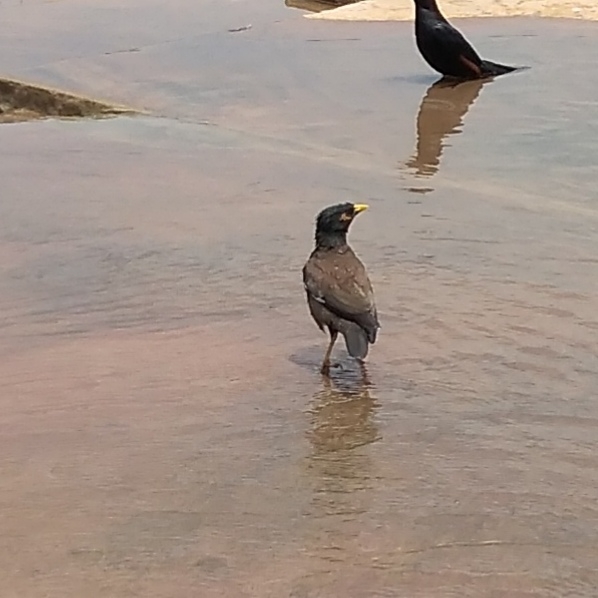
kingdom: Animalia
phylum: Chordata
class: Aves
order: Passeriformes
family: Sturnidae
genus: Acridotheres
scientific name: Acridotheres tristis
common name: Common myna
